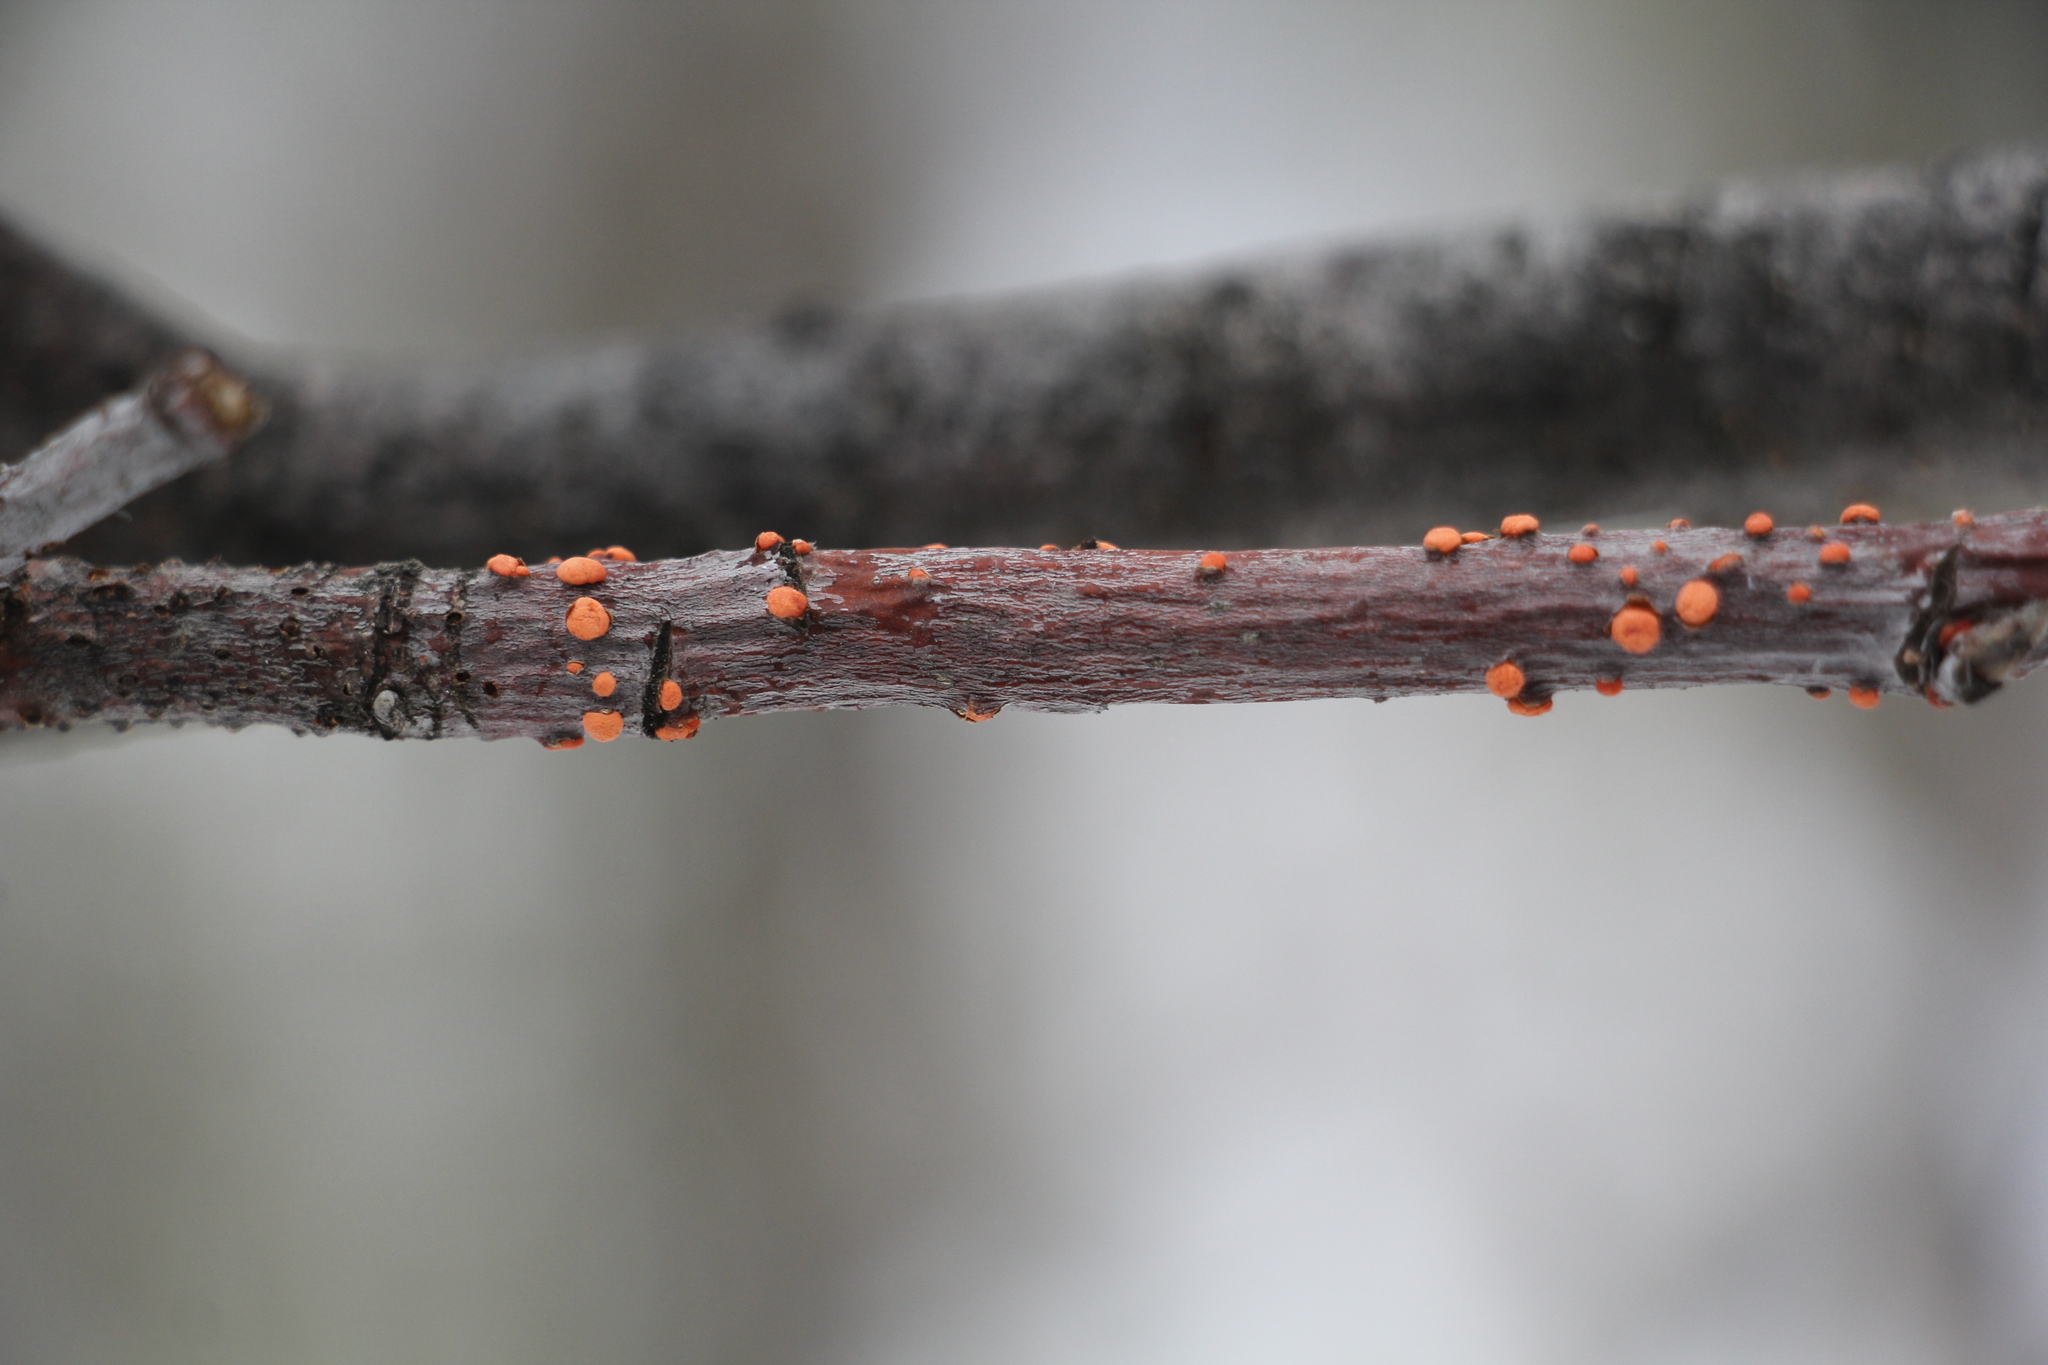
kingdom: Fungi
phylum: Ascomycota
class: Sordariomycetes
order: Hypocreales
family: Nectriaceae
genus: Nectria
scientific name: Nectria cinnabarina
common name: Coral spot
